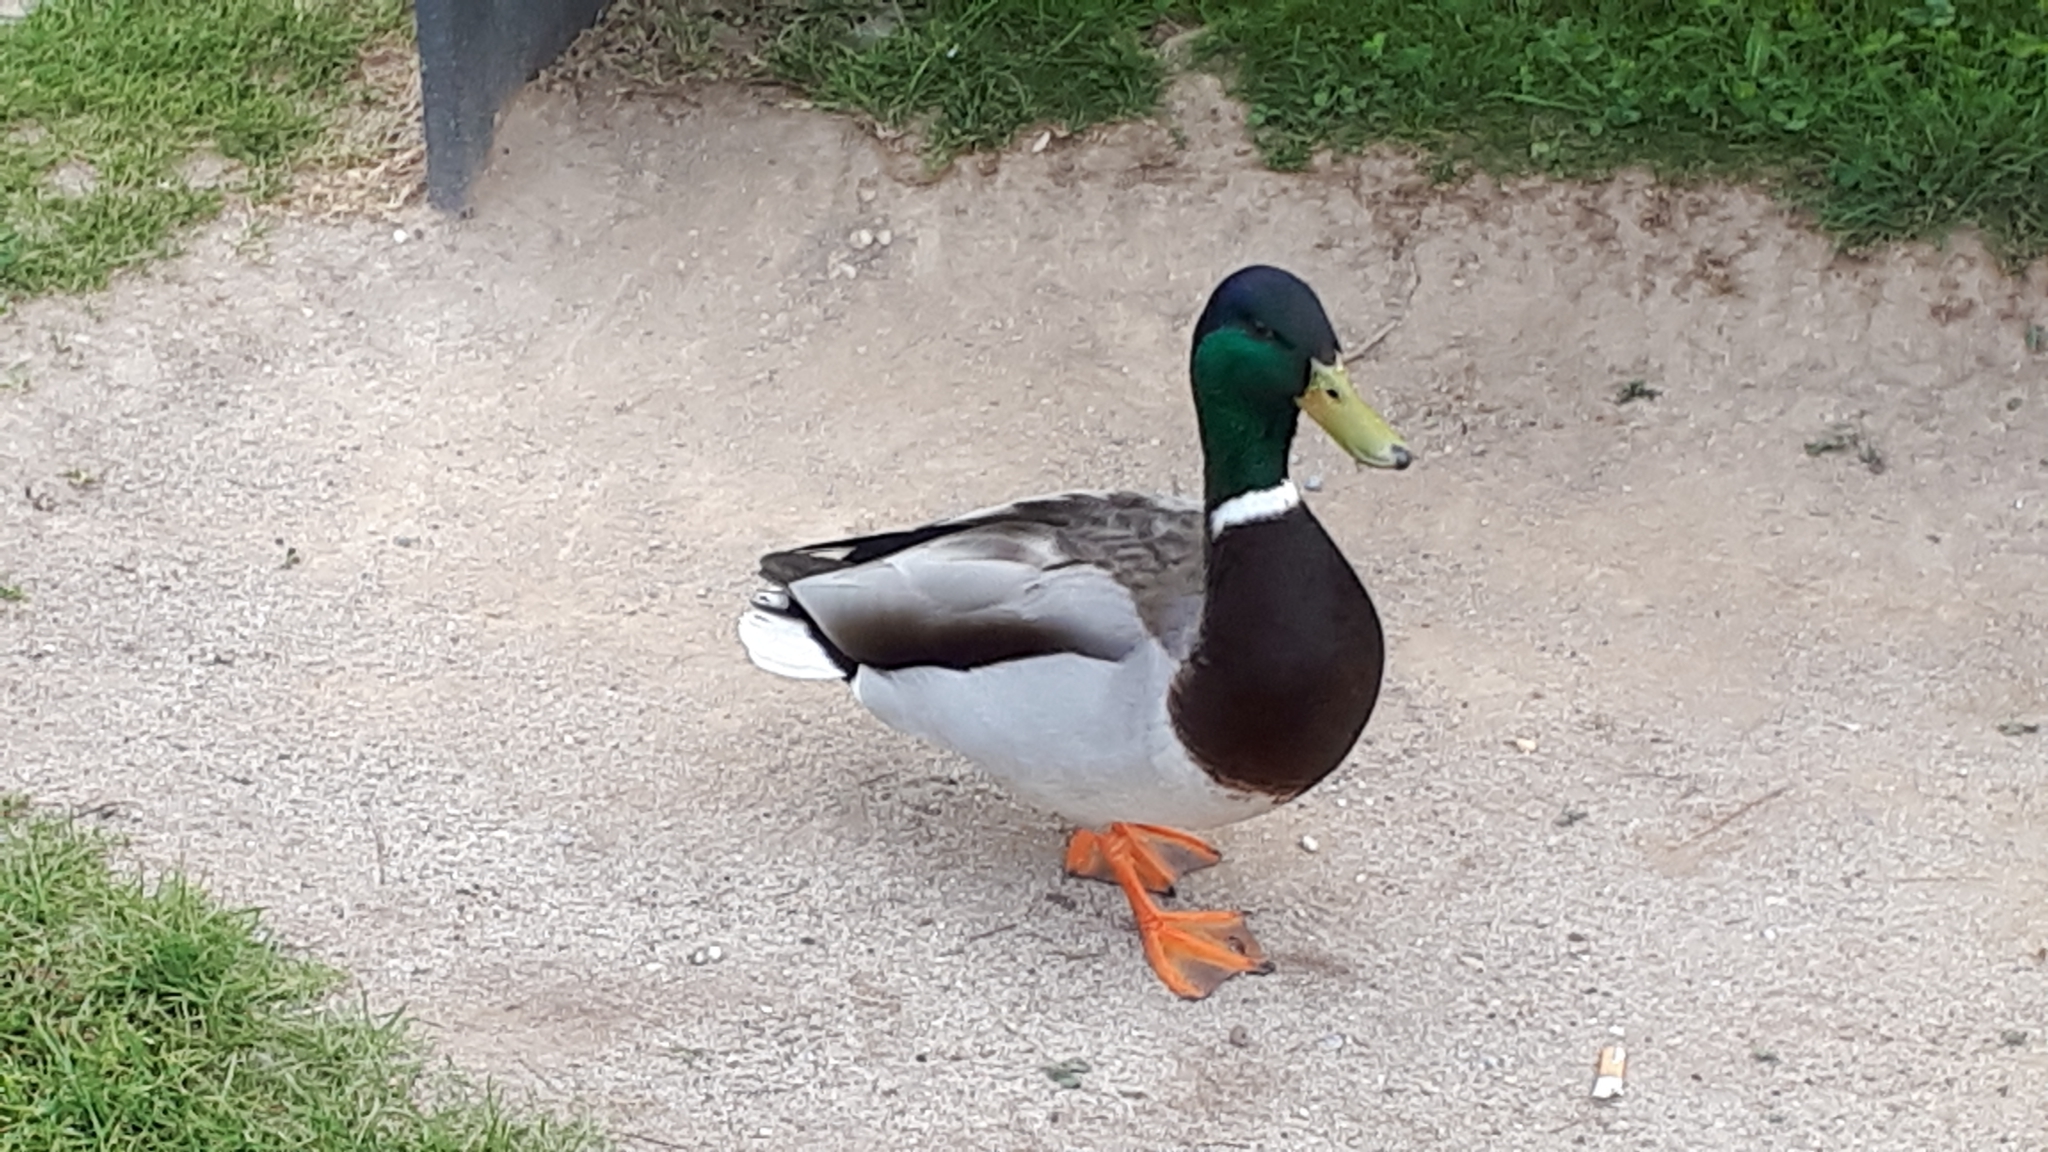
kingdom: Animalia
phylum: Chordata
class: Aves
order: Anseriformes
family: Anatidae
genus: Anas
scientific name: Anas platyrhynchos
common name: Mallard
